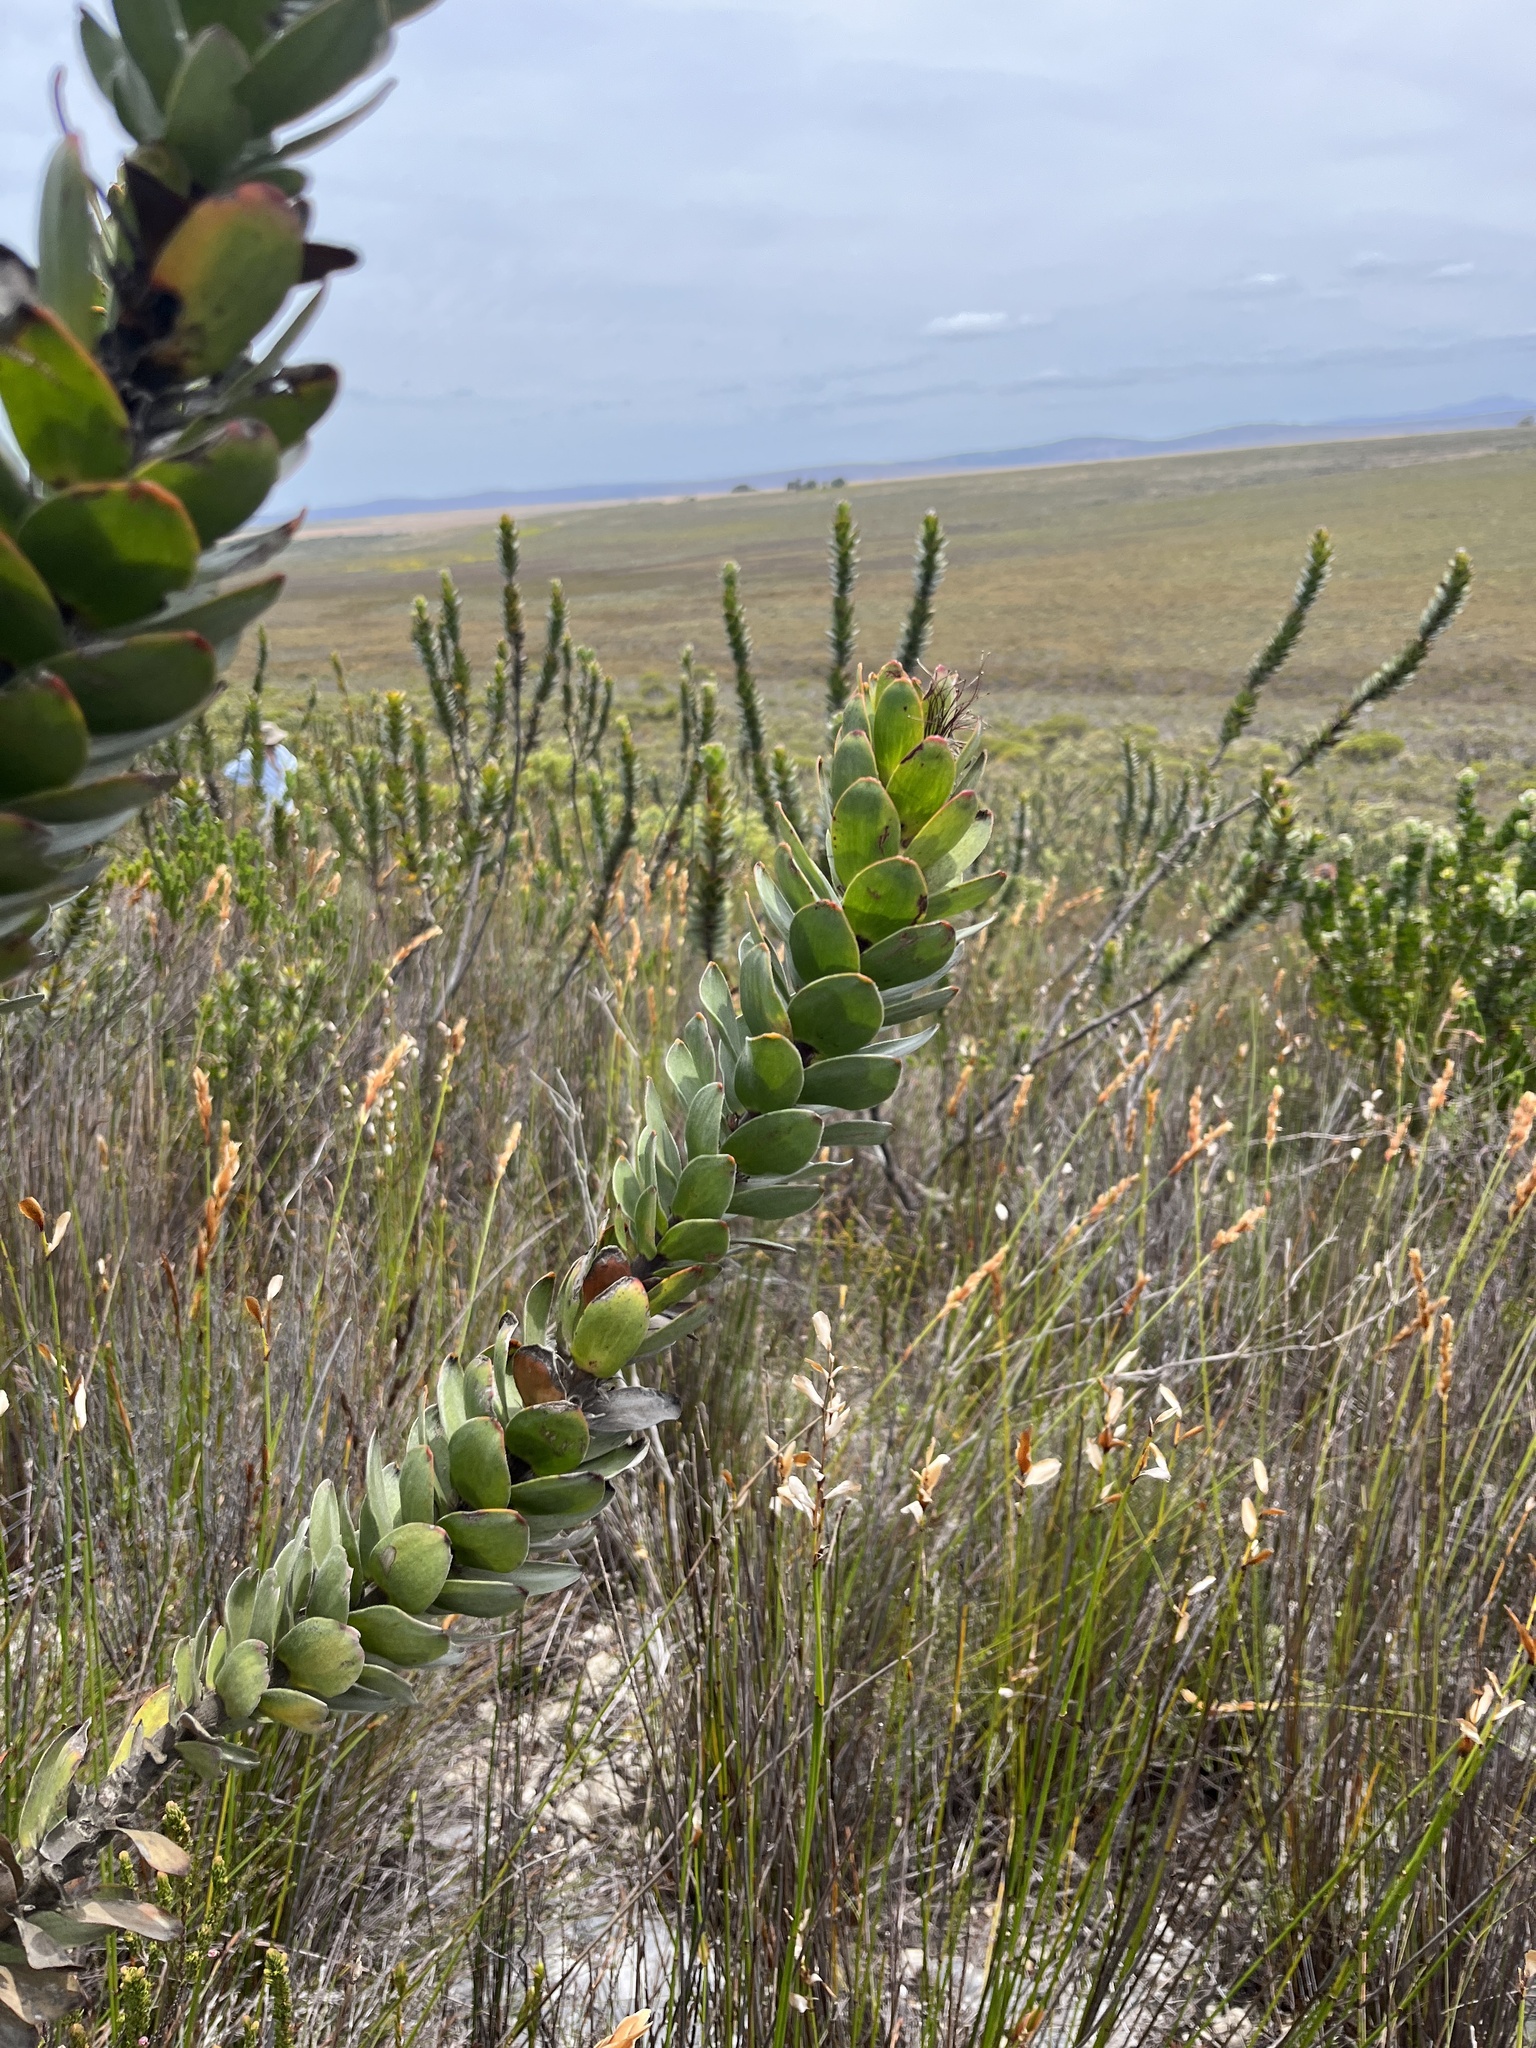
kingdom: Plantae
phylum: Tracheophyta
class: Magnoliopsida
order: Proteales
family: Proteaceae
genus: Mimetes
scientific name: Mimetes saxatilis
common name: Limestone pagoda
